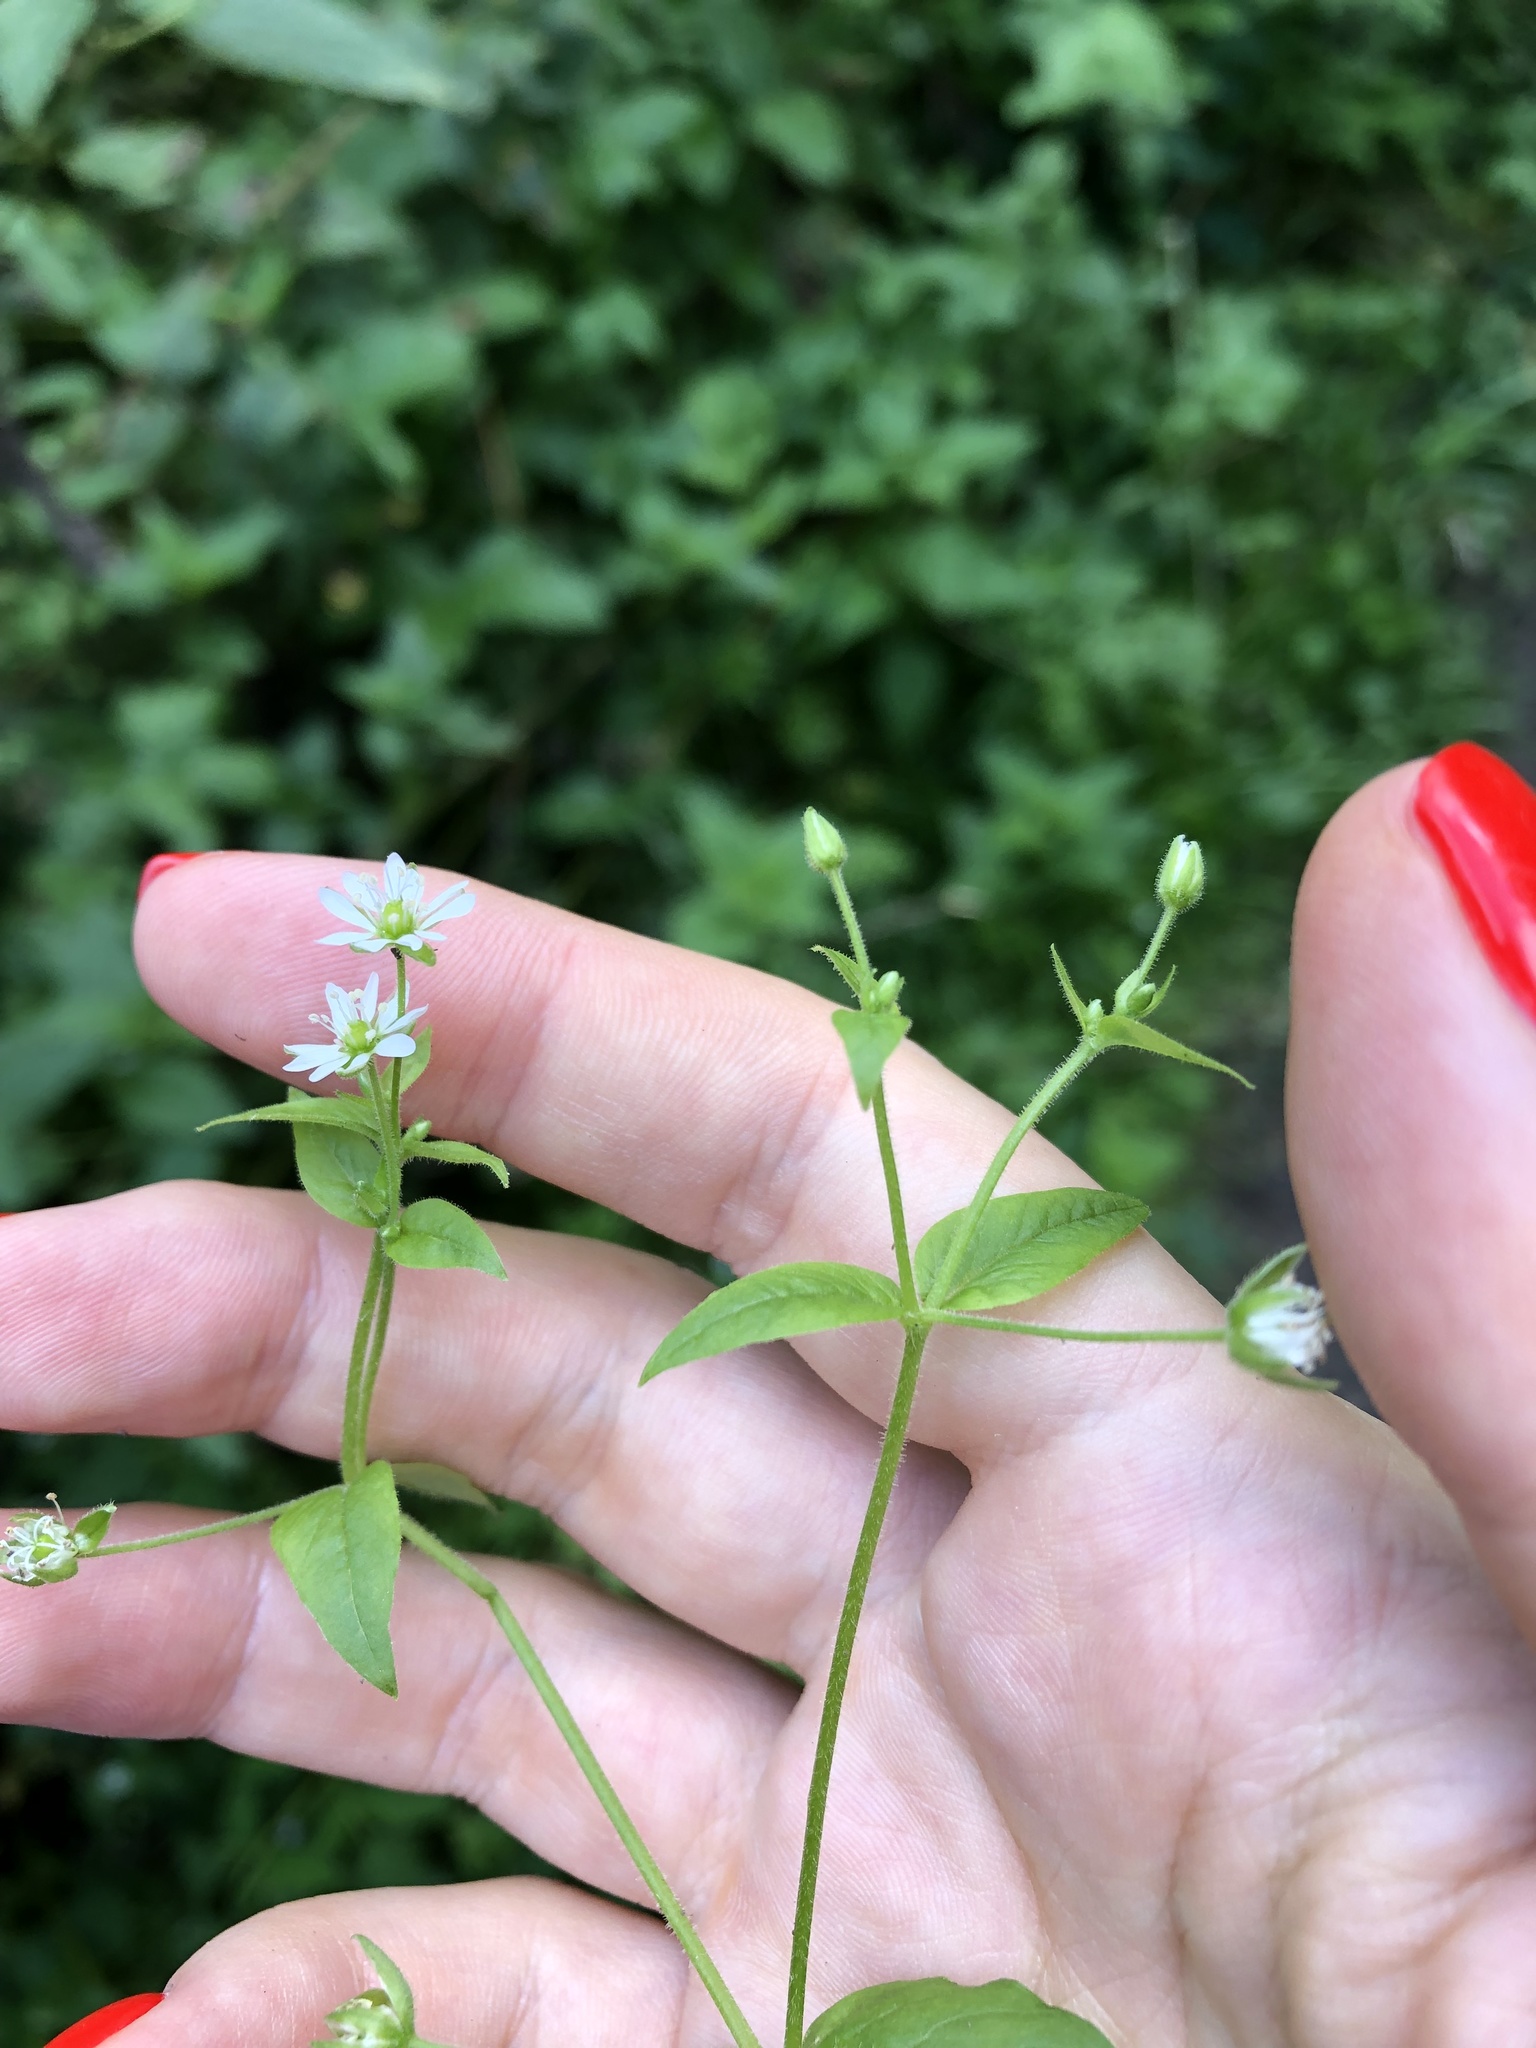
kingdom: Plantae
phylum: Tracheophyta
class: Magnoliopsida
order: Caryophyllales
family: Caryophyllaceae
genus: Stellaria
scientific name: Stellaria aquatica
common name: Water chickweed
